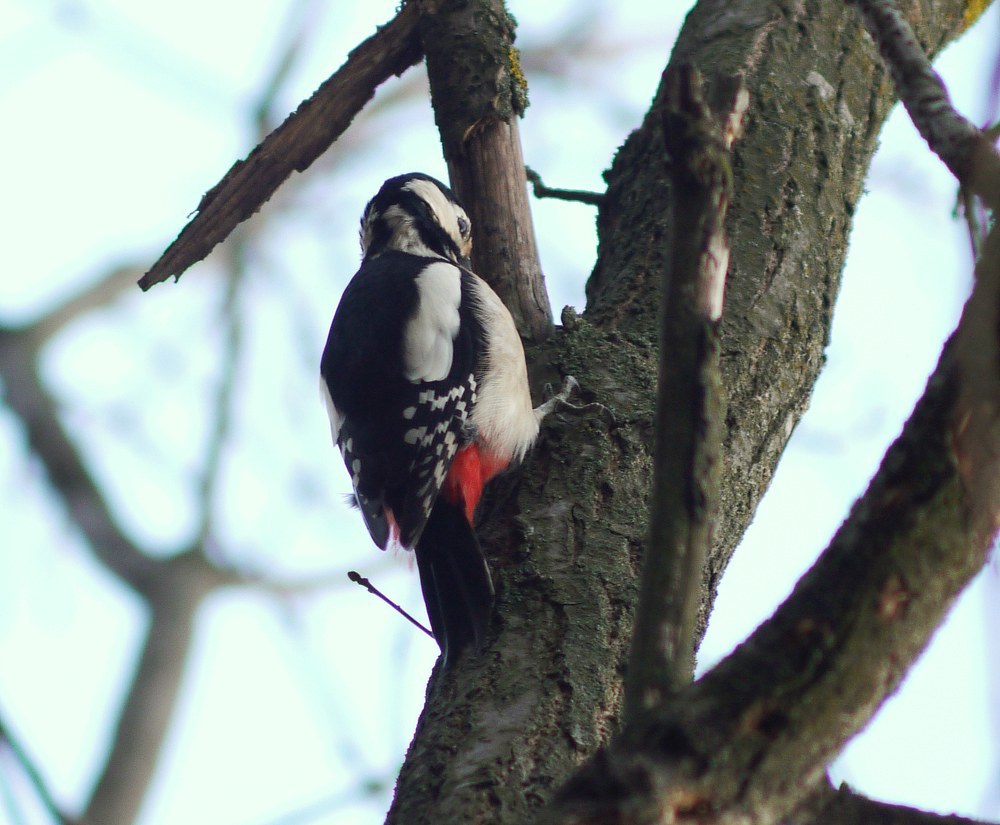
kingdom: Animalia
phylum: Chordata
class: Aves
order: Piciformes
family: Picidae
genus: Dendrocopos
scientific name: Dendrocopos major
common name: Great spotted woodpecker
